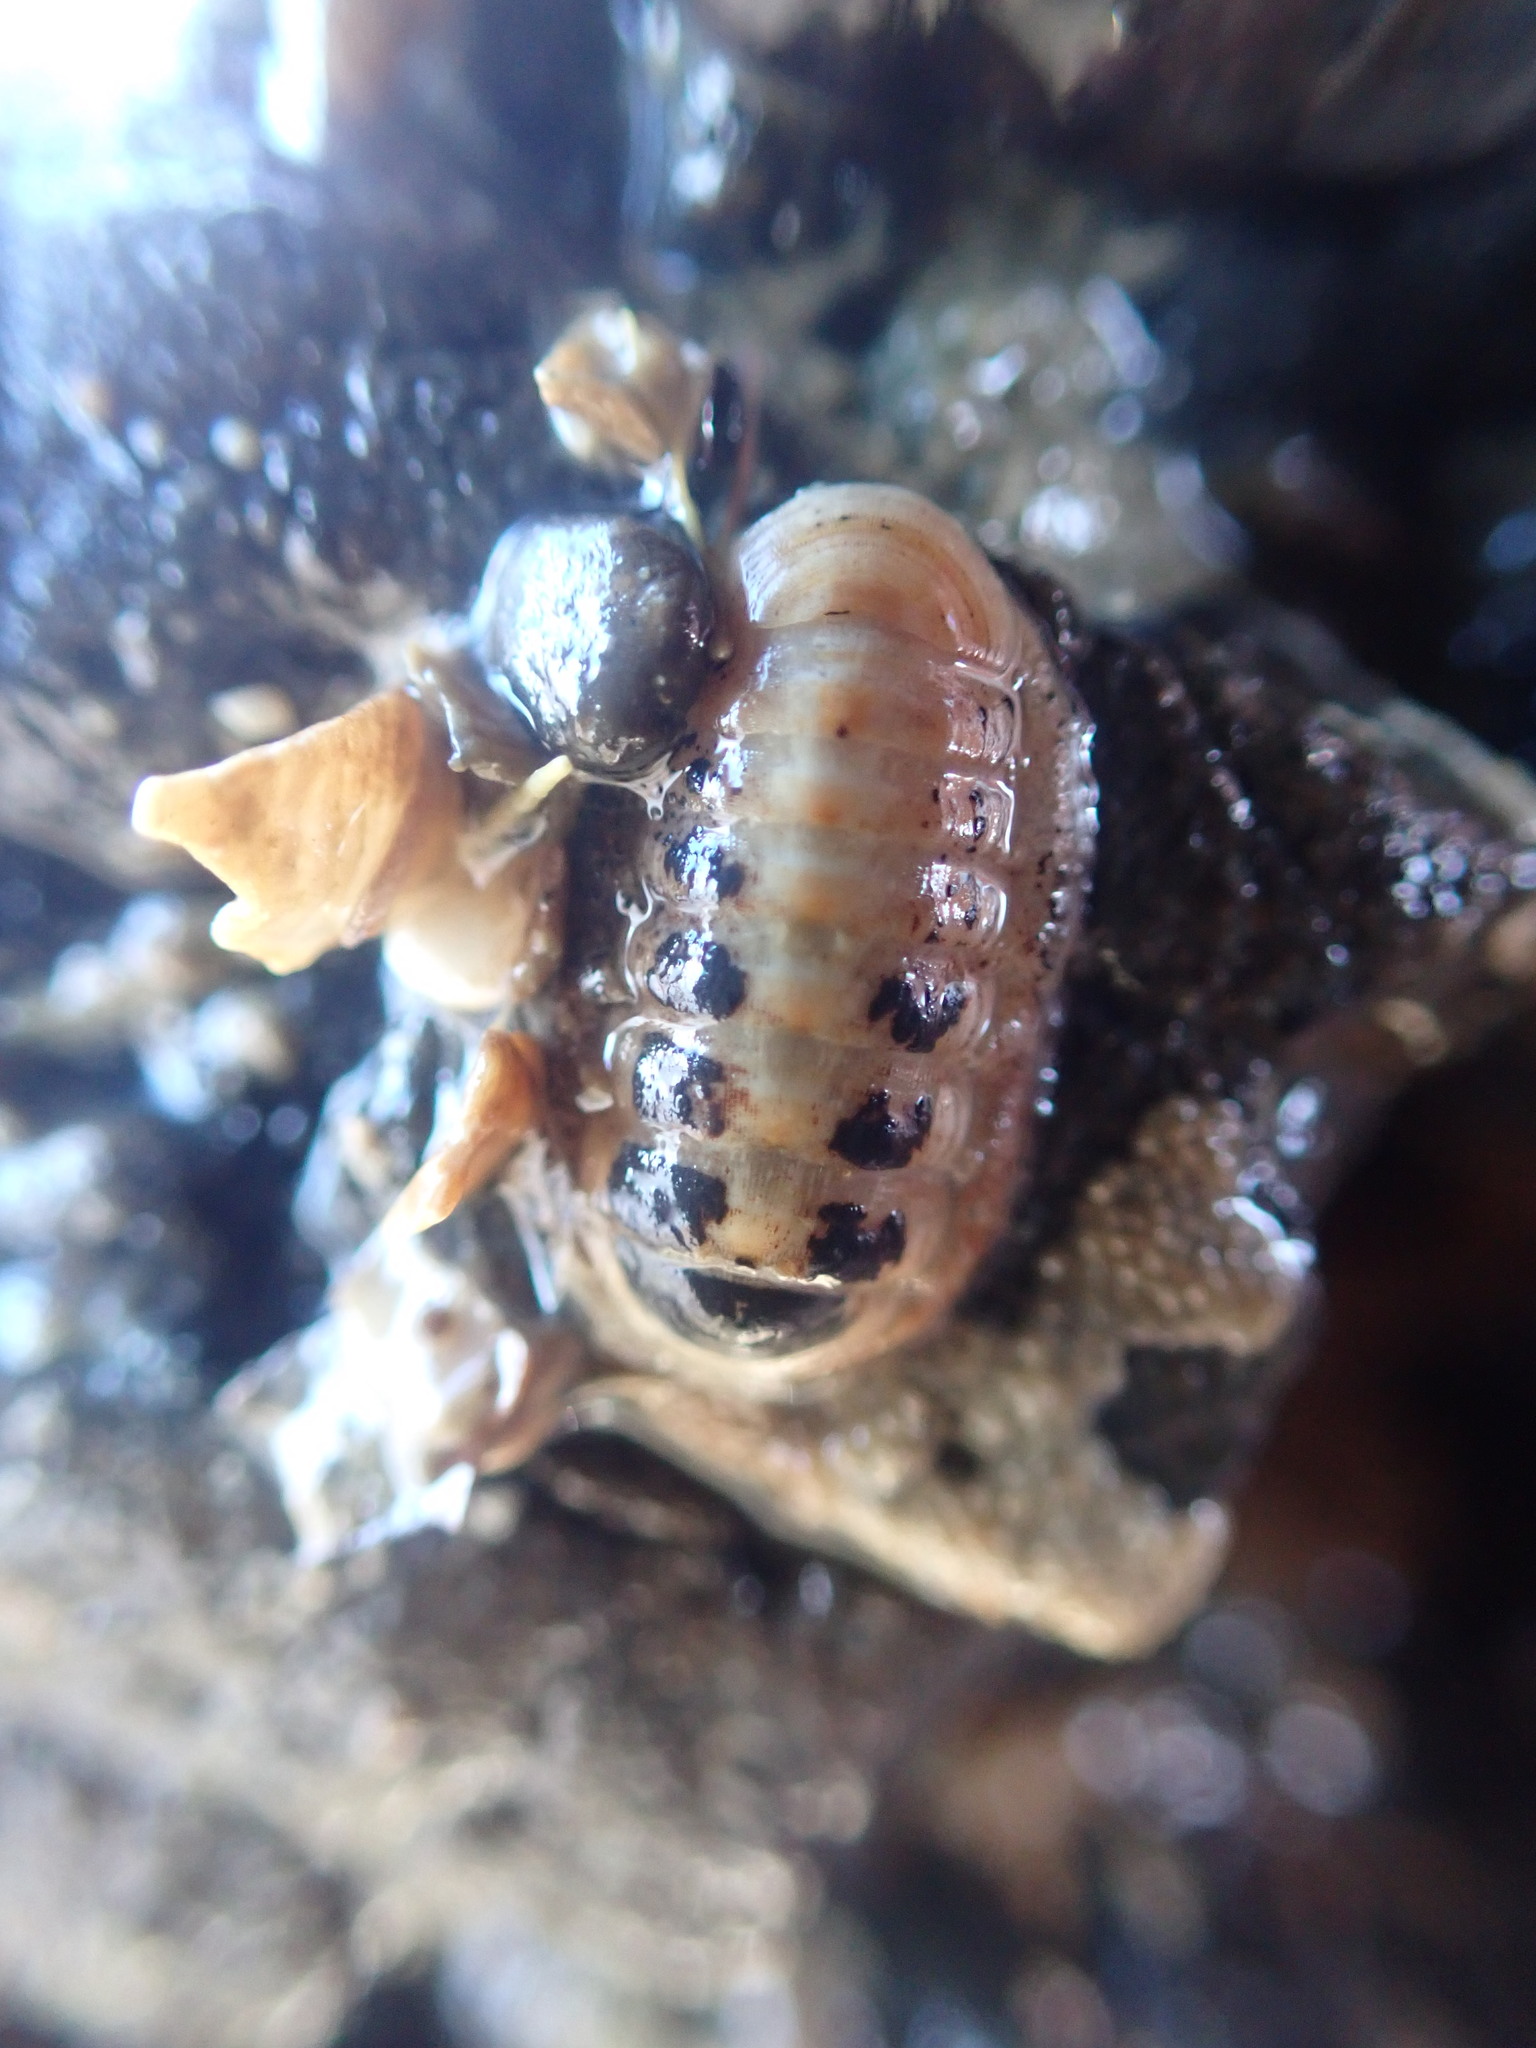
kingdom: Animalia
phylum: Mollusca
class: Polyplacophora
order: Lepidopleurida
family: Leptochitonidae
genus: Leptochiton
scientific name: Leptochiton inquinatus
